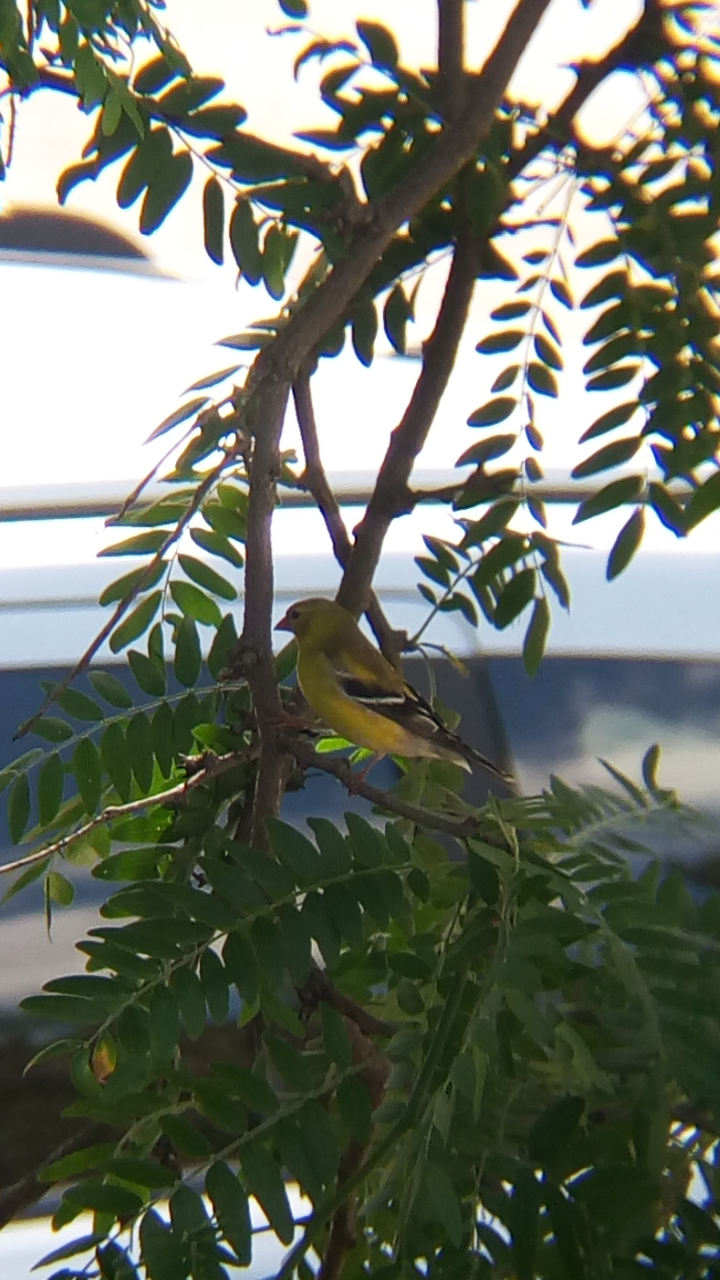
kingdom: Animalia
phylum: Chordata
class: Aves
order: Passeriformes
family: Fringillidae
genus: Spinus
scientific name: Spinus tristis
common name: American goldfinch
